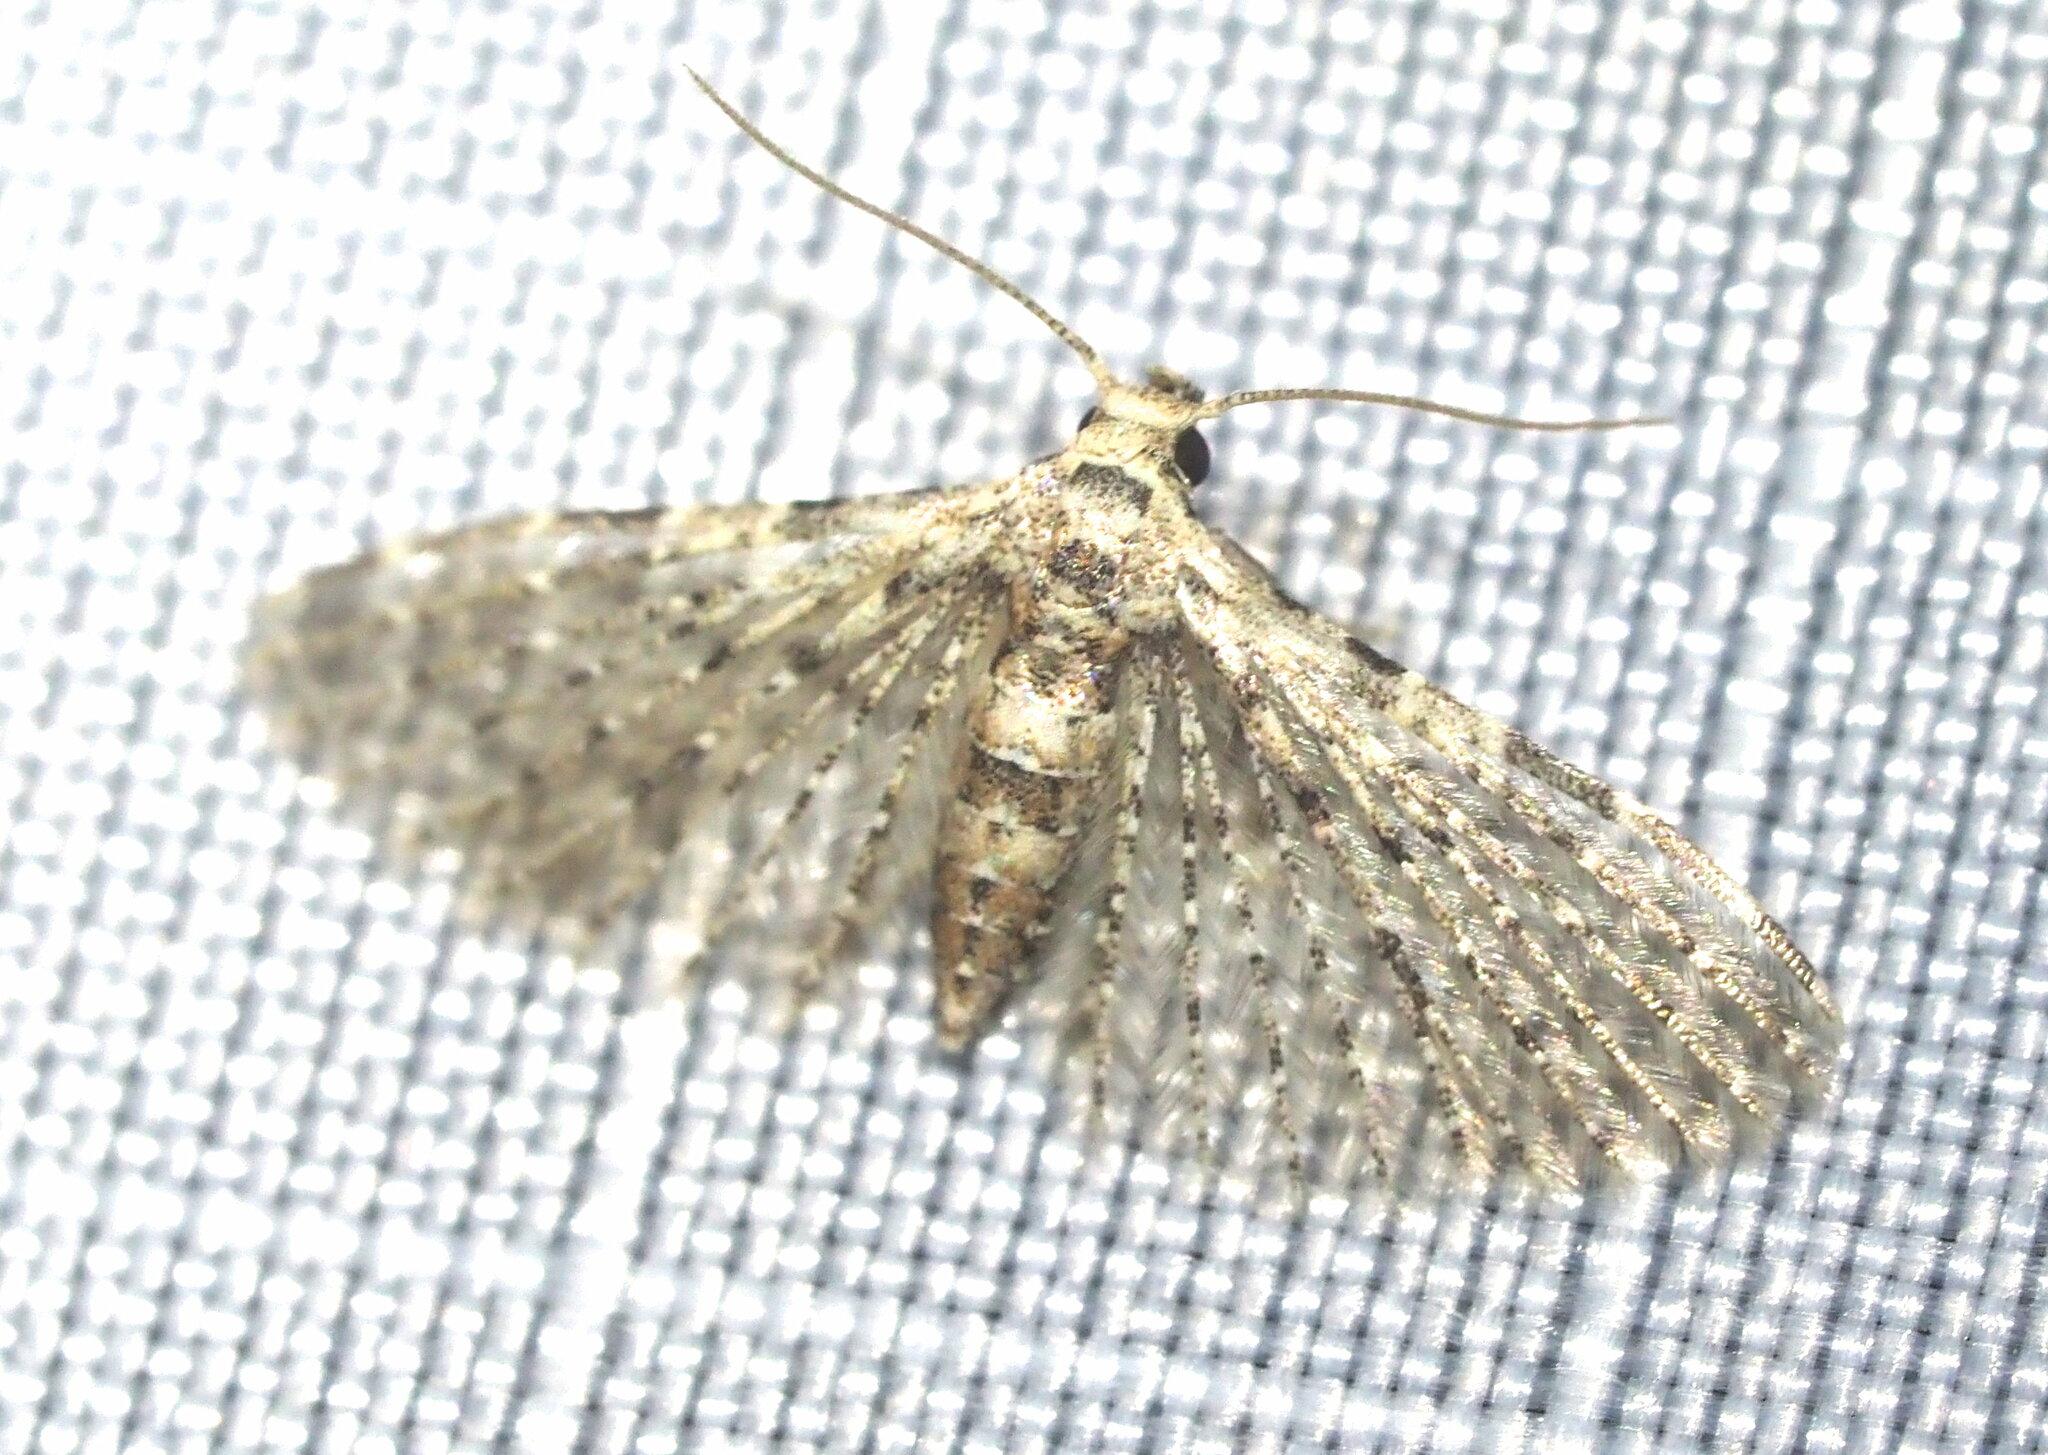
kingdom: Animalia
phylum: Arthropoda
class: Insecta
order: Lepidoptera
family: Alucitidae
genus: Alucita
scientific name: Alucita objurgatella
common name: Moth
